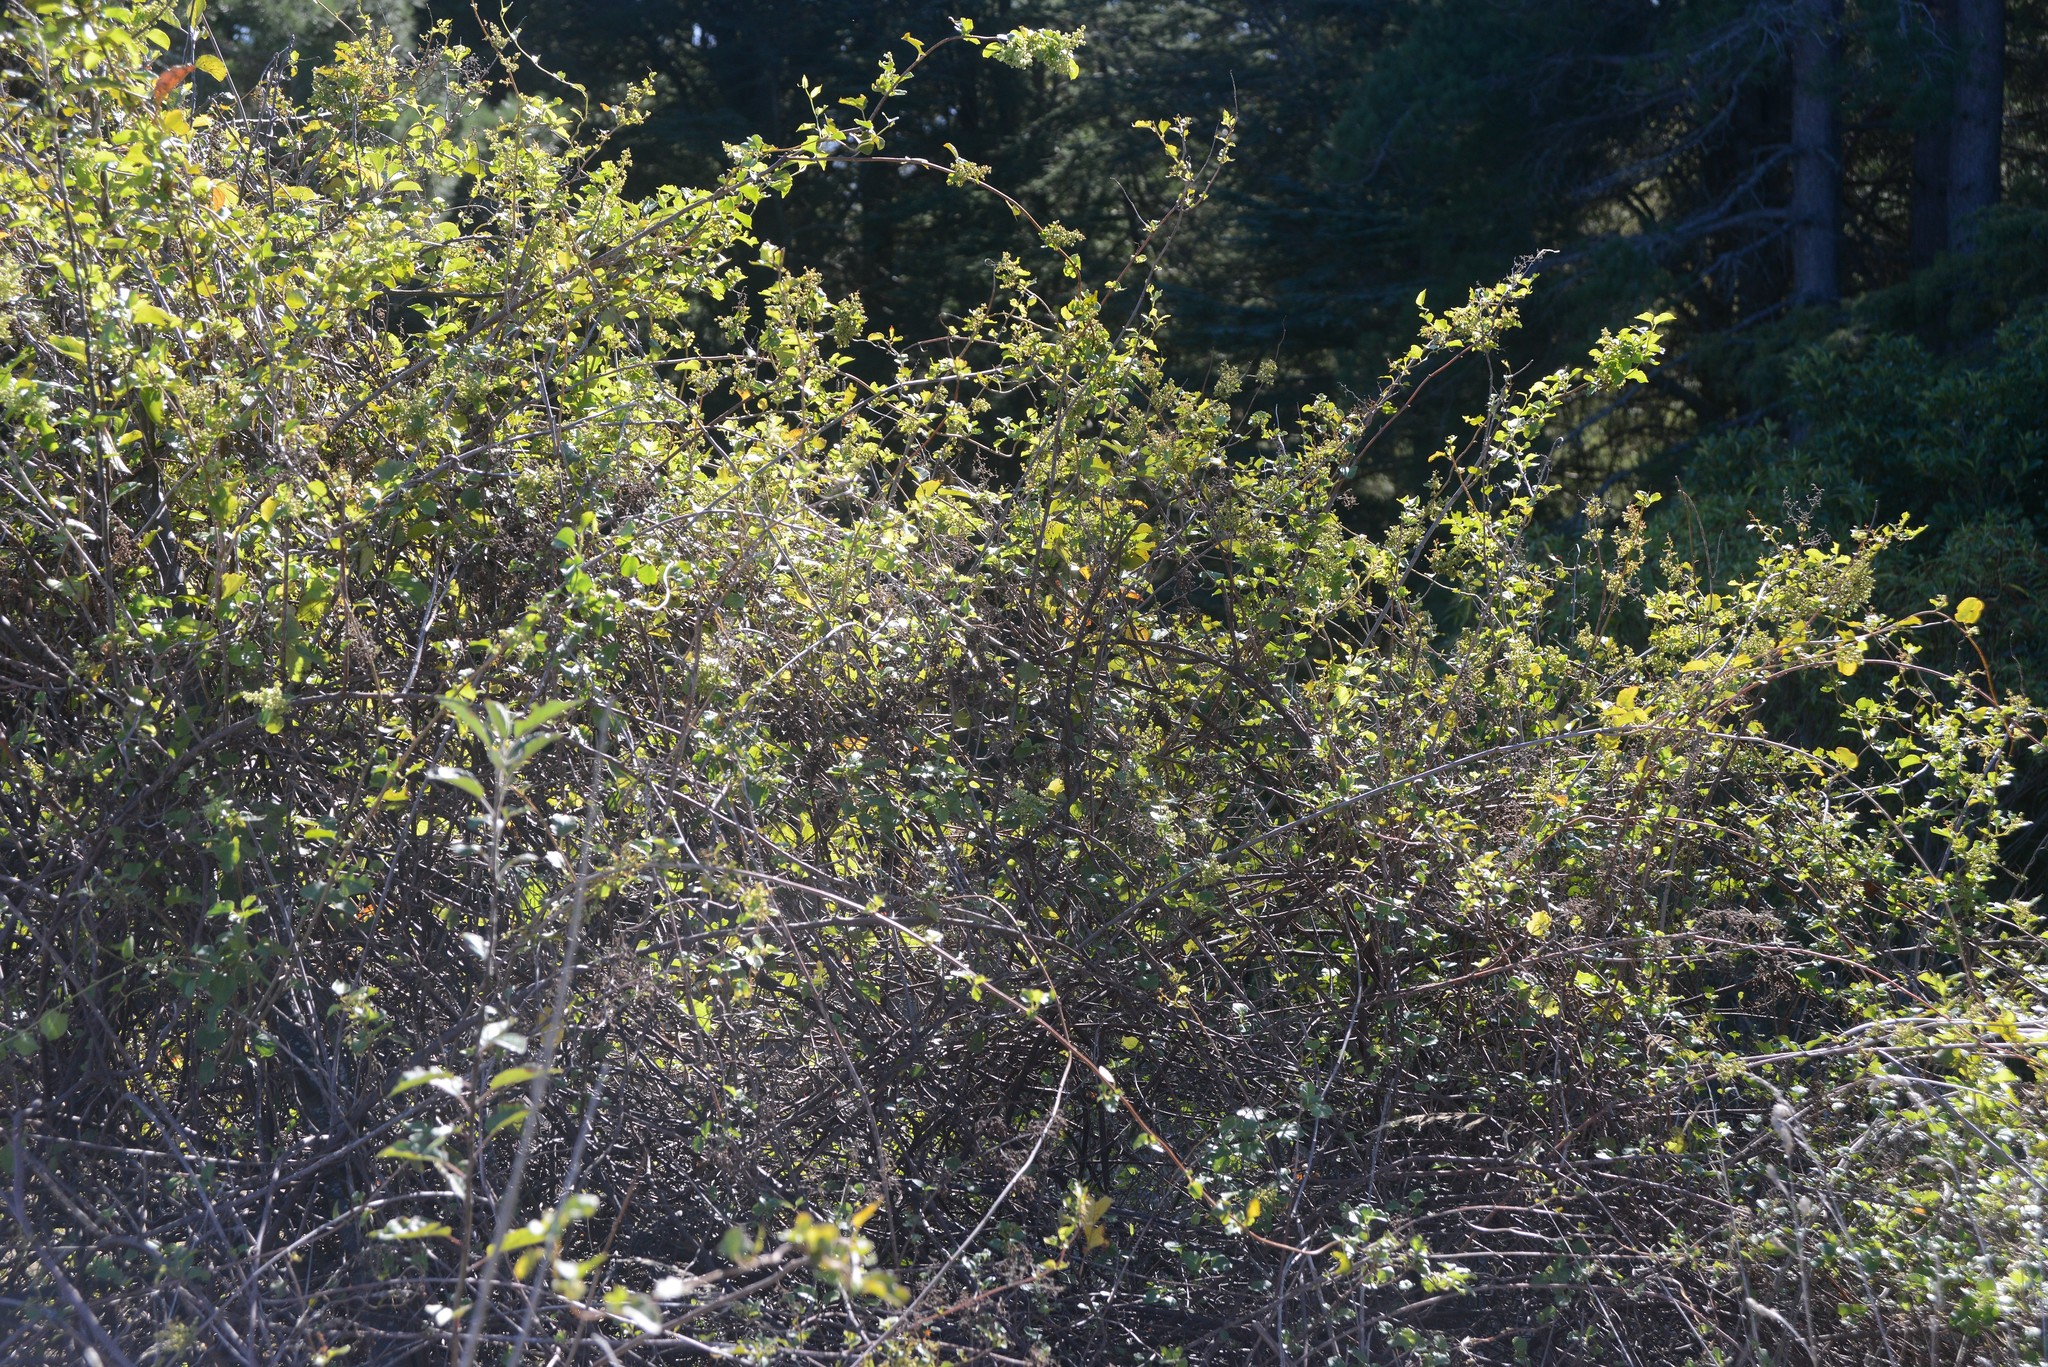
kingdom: Plantae
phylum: Tracheophyta
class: Magnoliopsida
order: Caryophyllales
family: Polygonaceae
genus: Muehlenbeckia
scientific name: Muehlenbeckia australis
